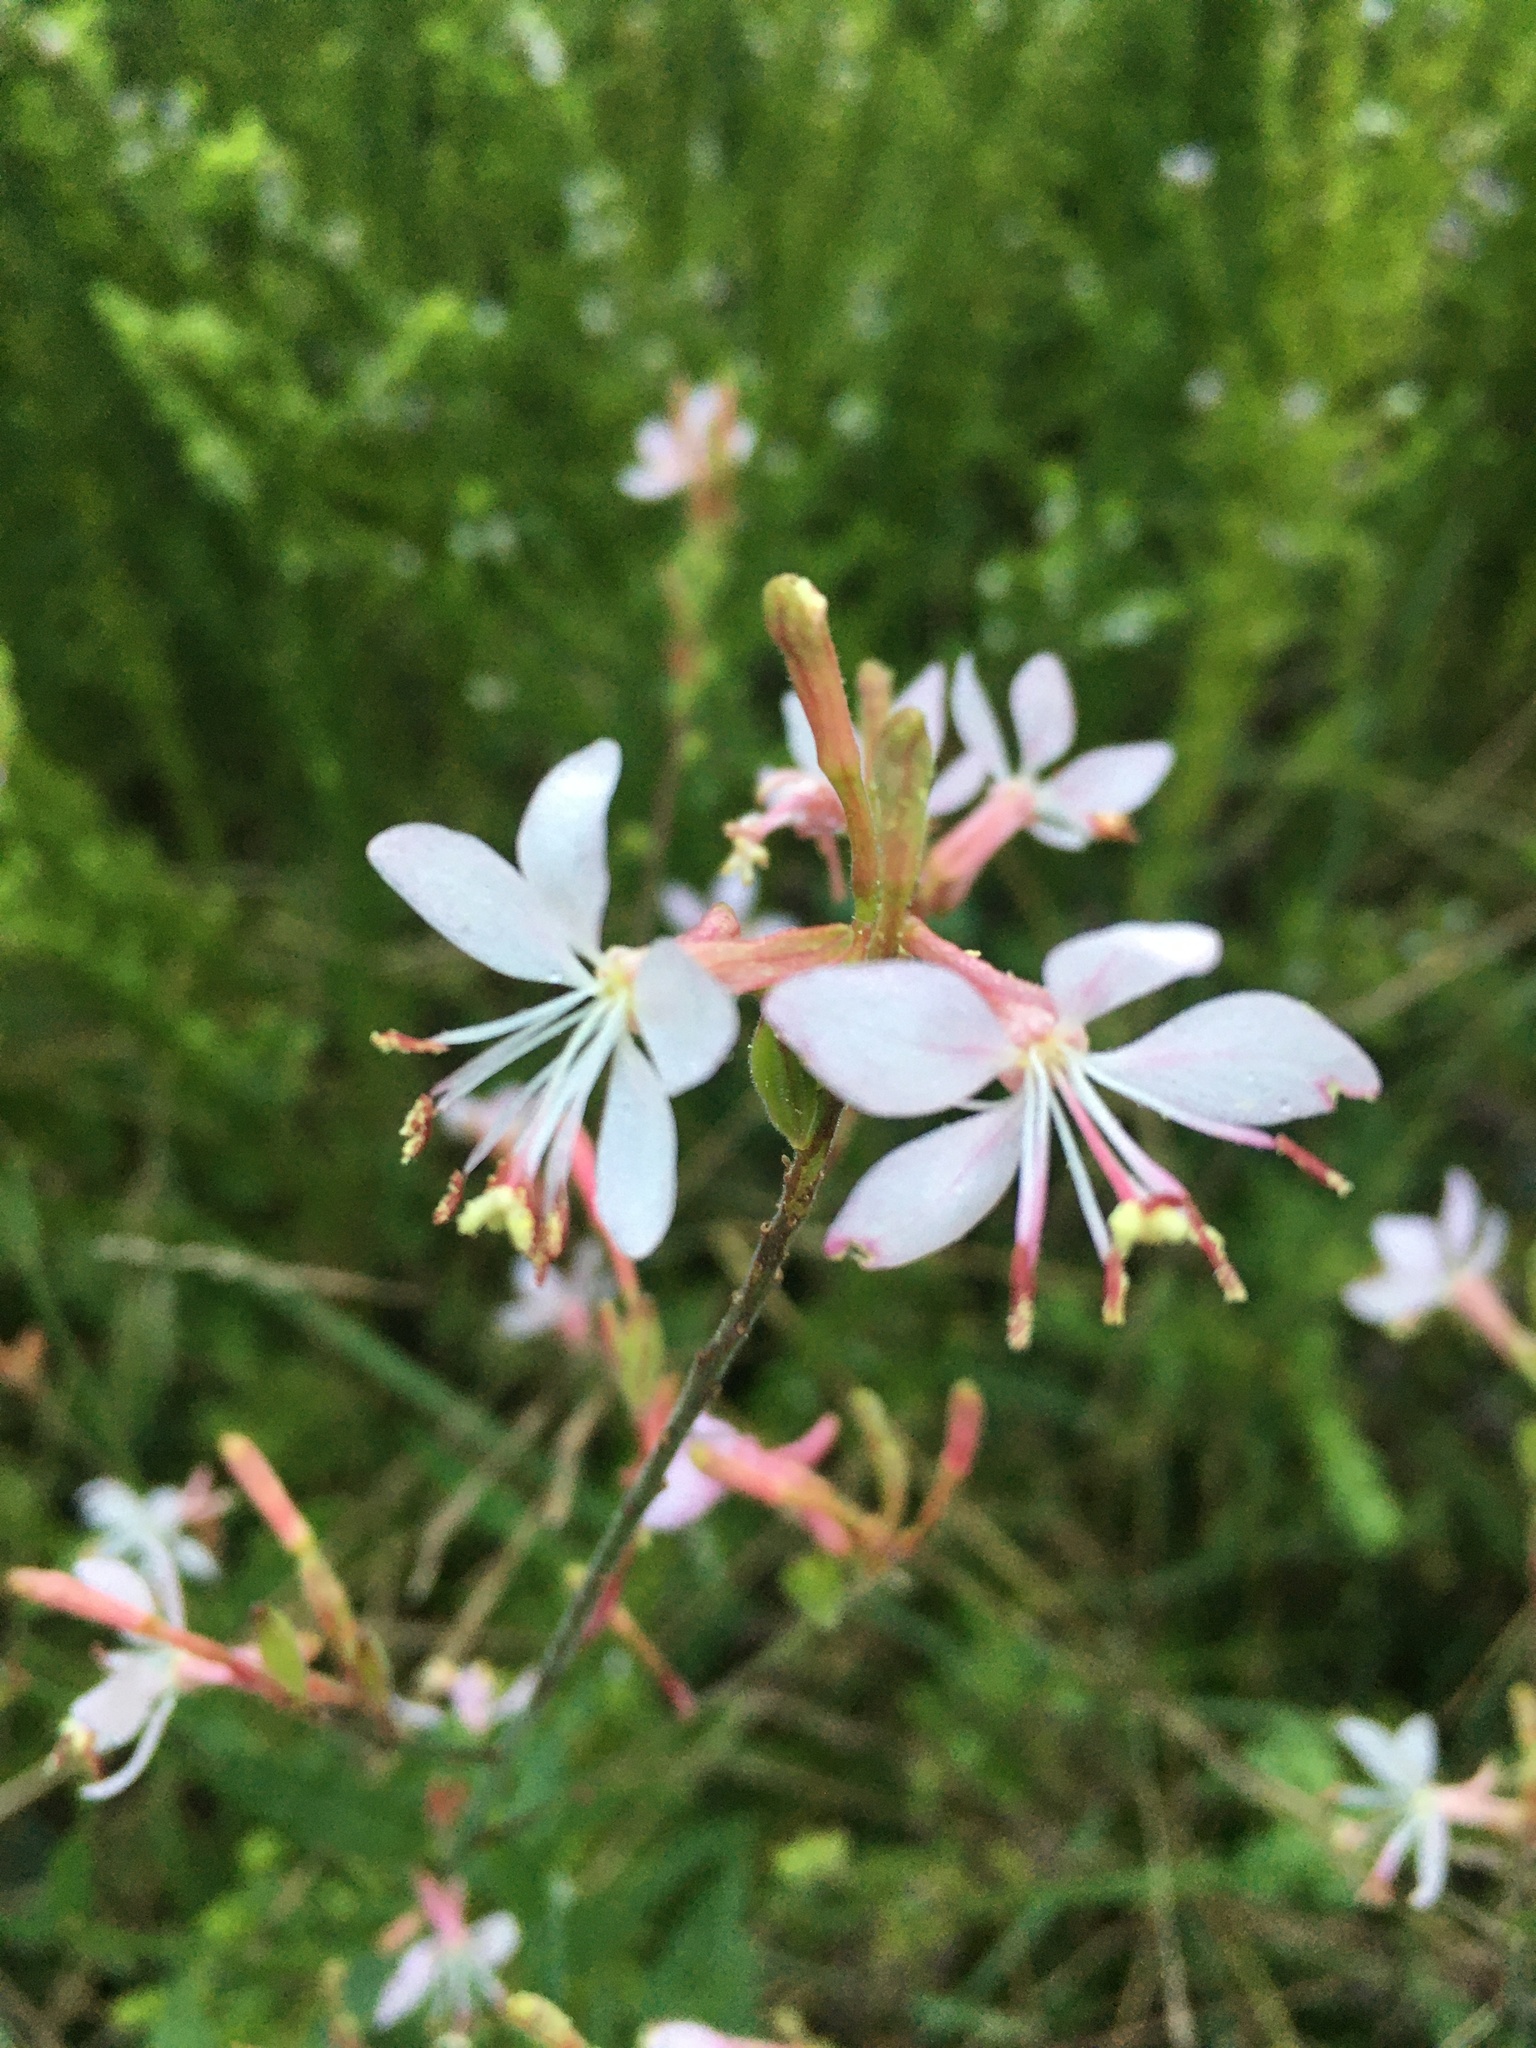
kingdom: Plantae
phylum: Tracheophyta
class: Magnoliopsida
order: Myrtales
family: Onagraceae
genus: Oenothera
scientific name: Oenothera gaura
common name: Biennial beeblossom
